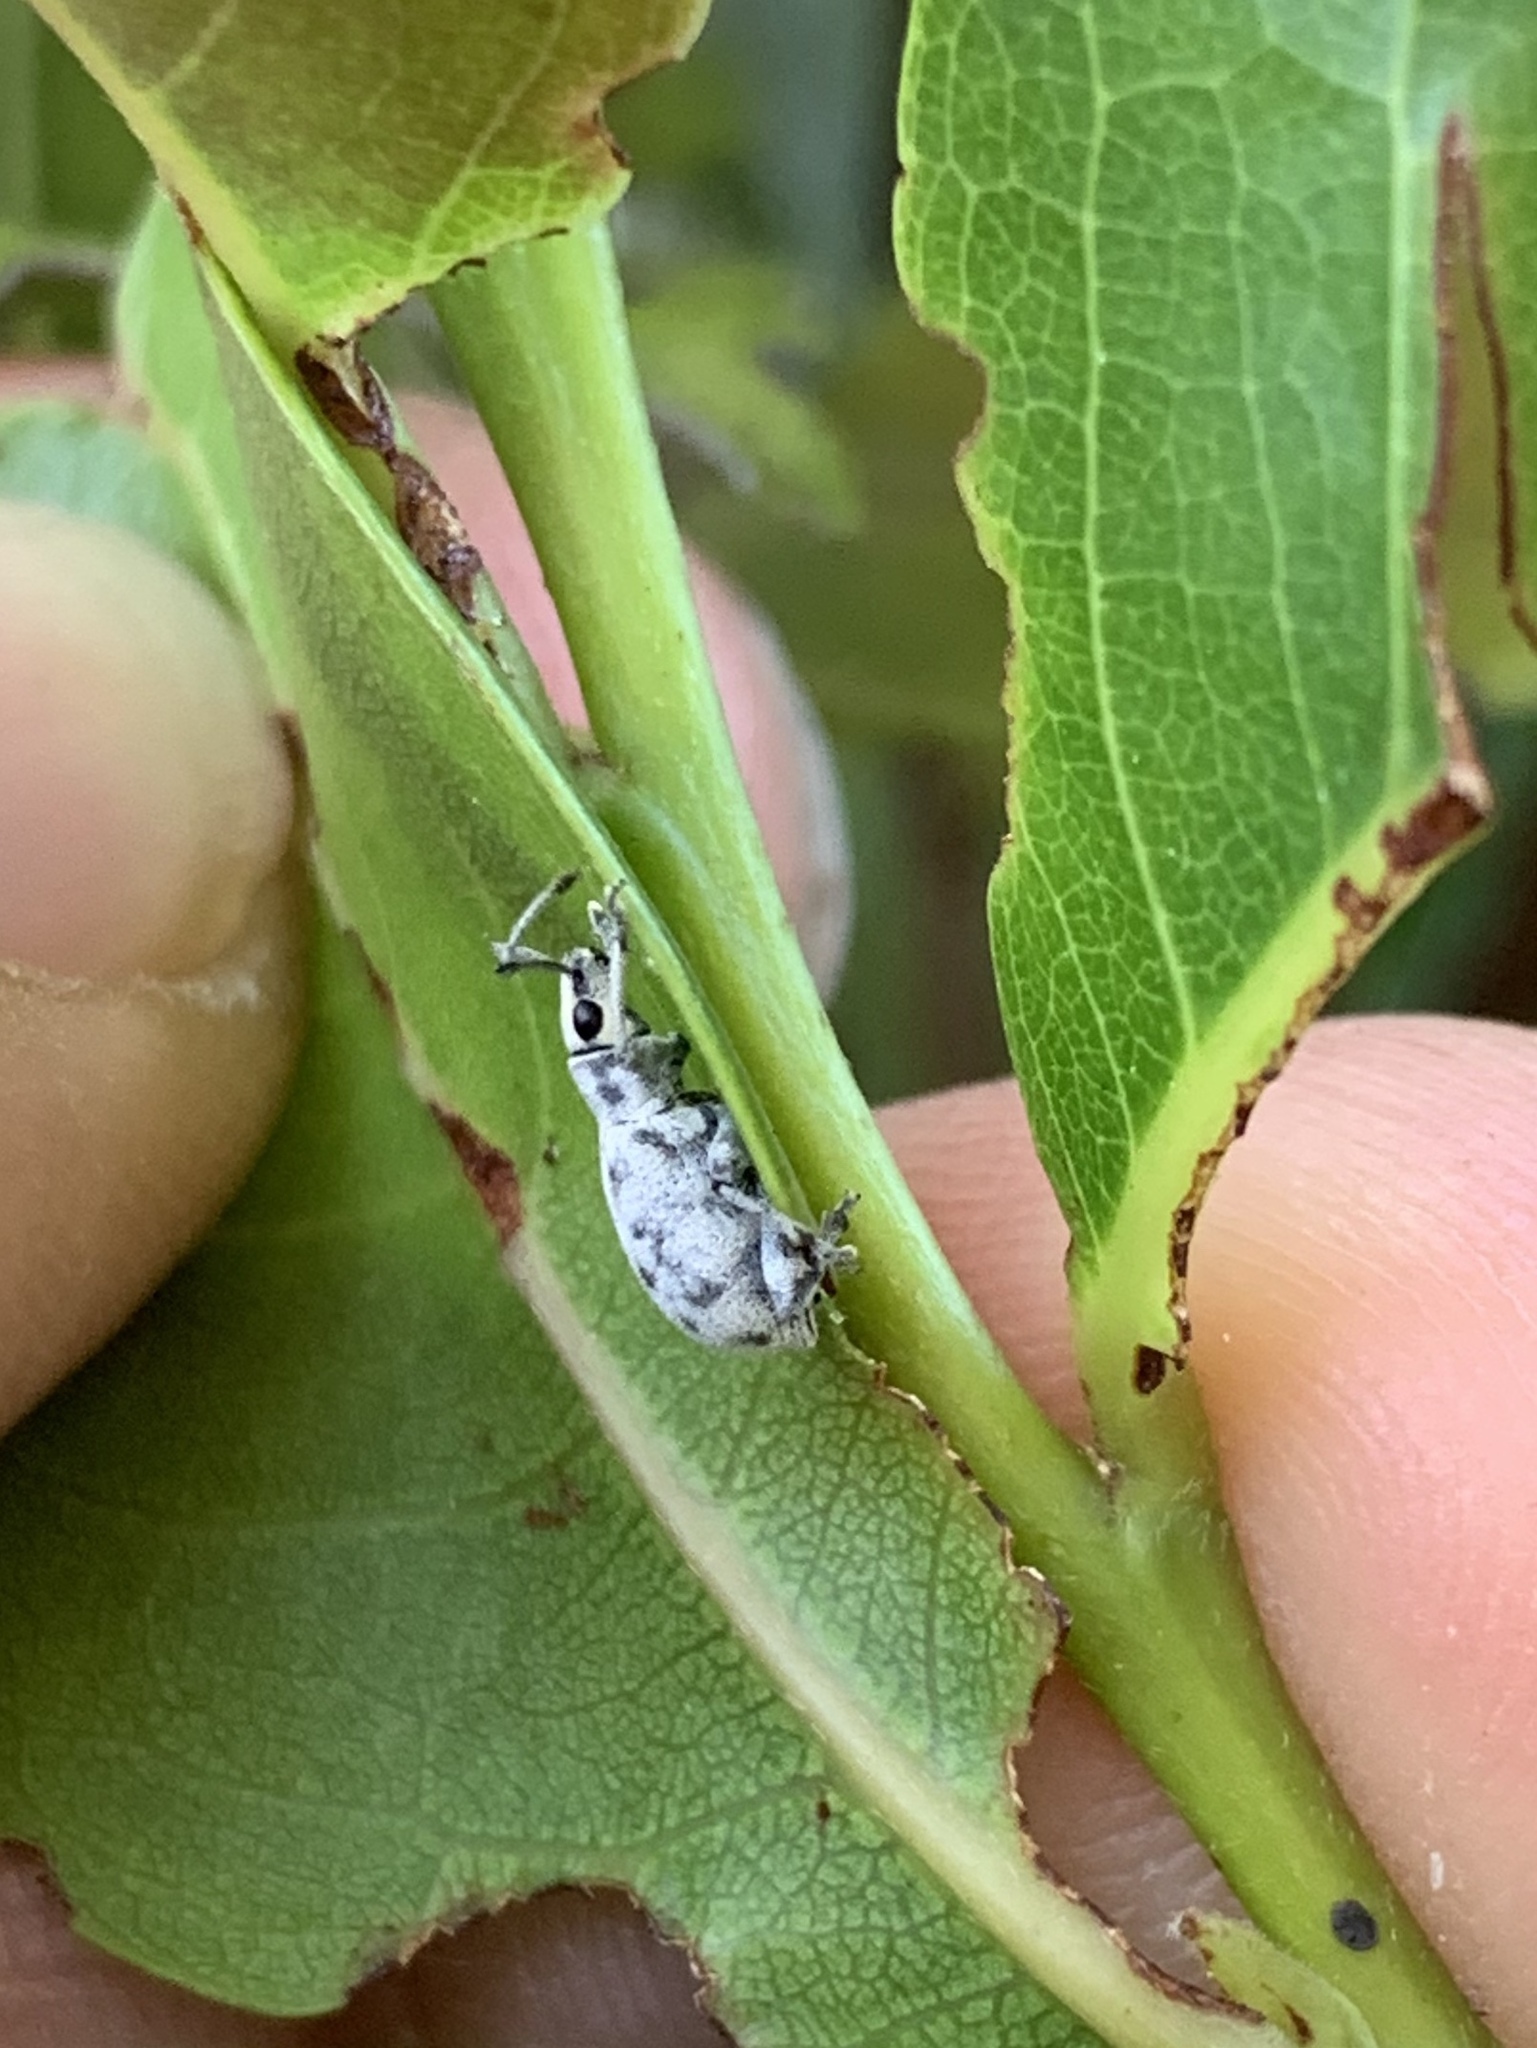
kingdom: Animalia
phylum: Arthropoda
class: Insecta
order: Coleoptera
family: Curculionidae
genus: Myllocerus
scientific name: Myllocerus undecimpustulatus
